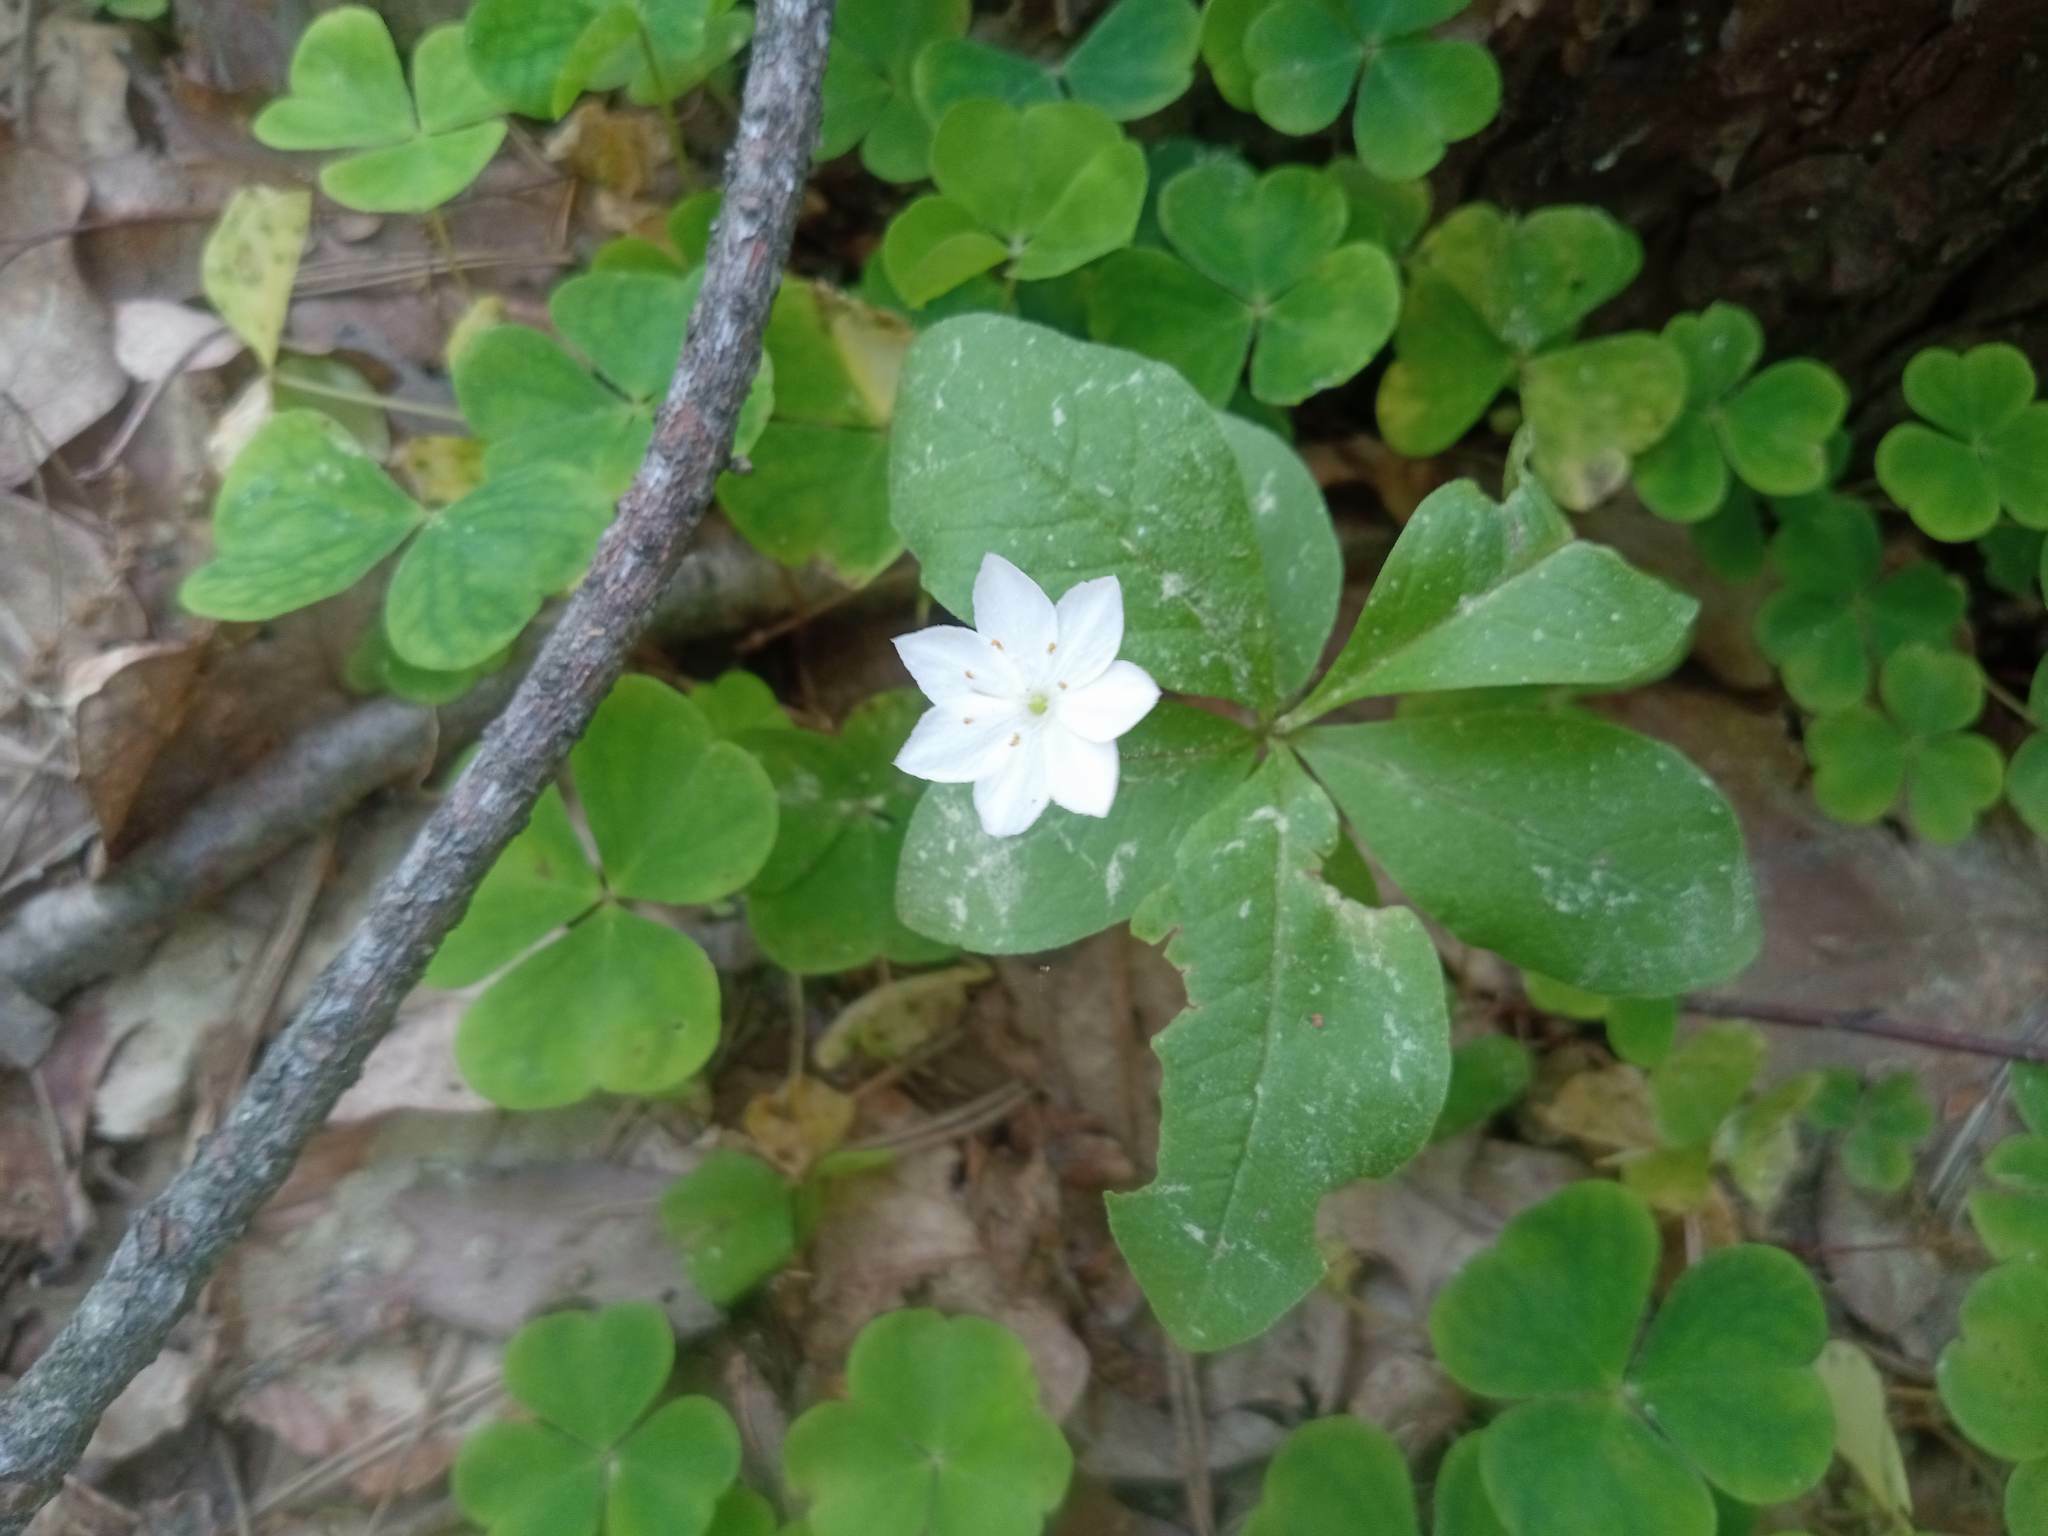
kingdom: Plantae
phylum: Tracheophyta
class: Magnoliopsida
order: Ericales
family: Primulaceae
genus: Lysimachia
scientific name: Lysimachia europaea
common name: Arctic starflower
